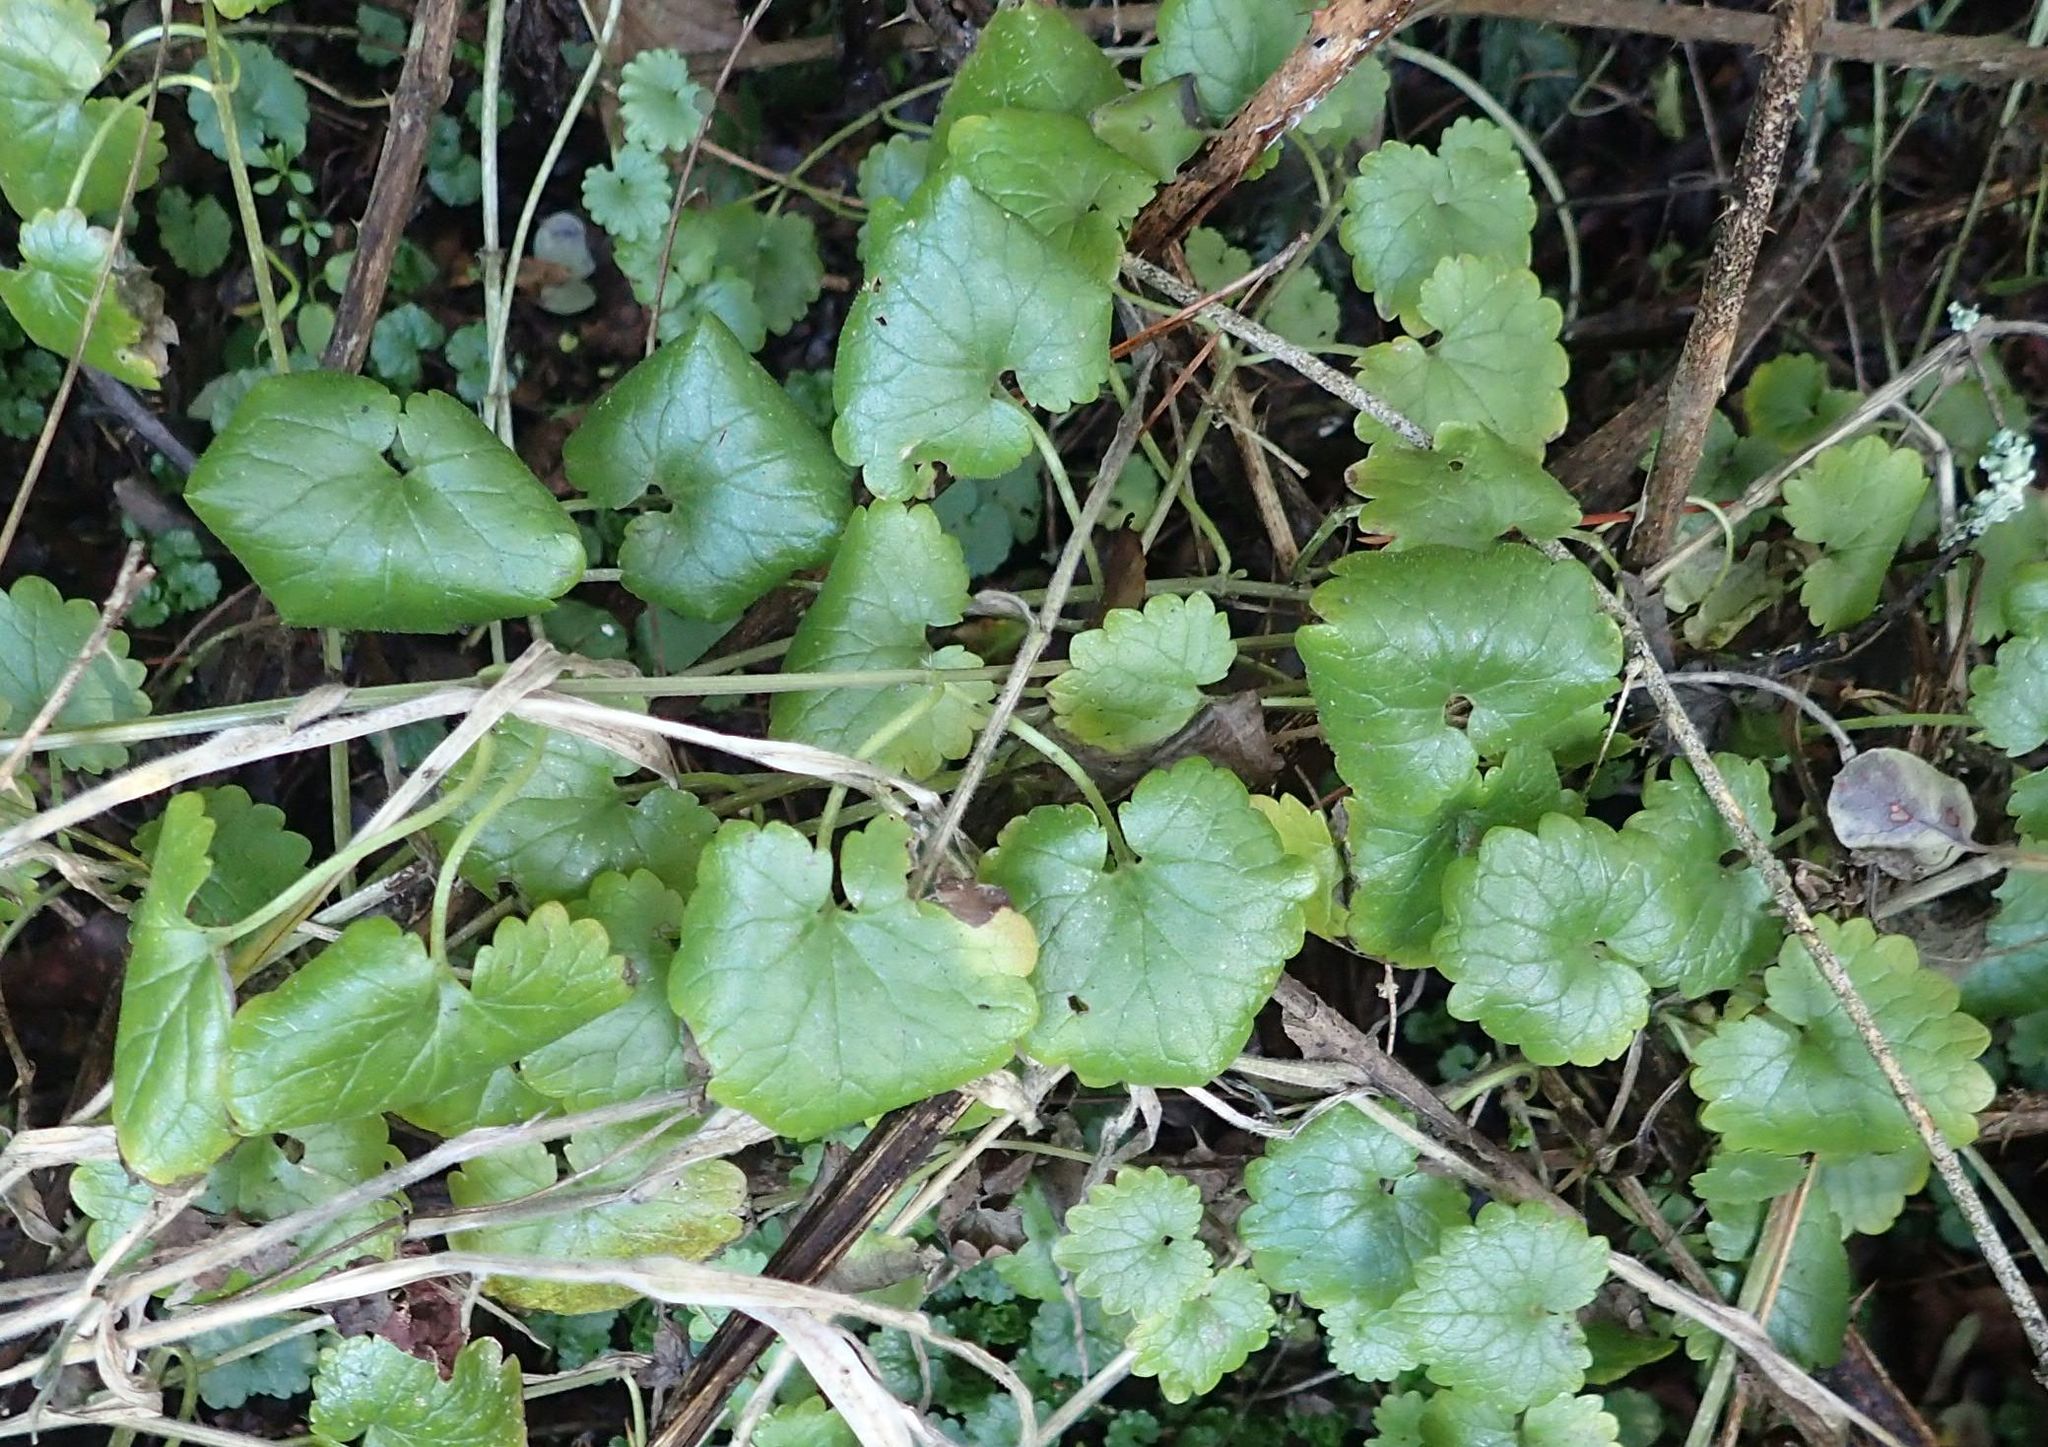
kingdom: Plantae
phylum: Tracheophyta
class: Magnoliopsida
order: Lamiales
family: Lamiaceae
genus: Glechoma
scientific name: Glechoma hederacea
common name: Ground ivy
